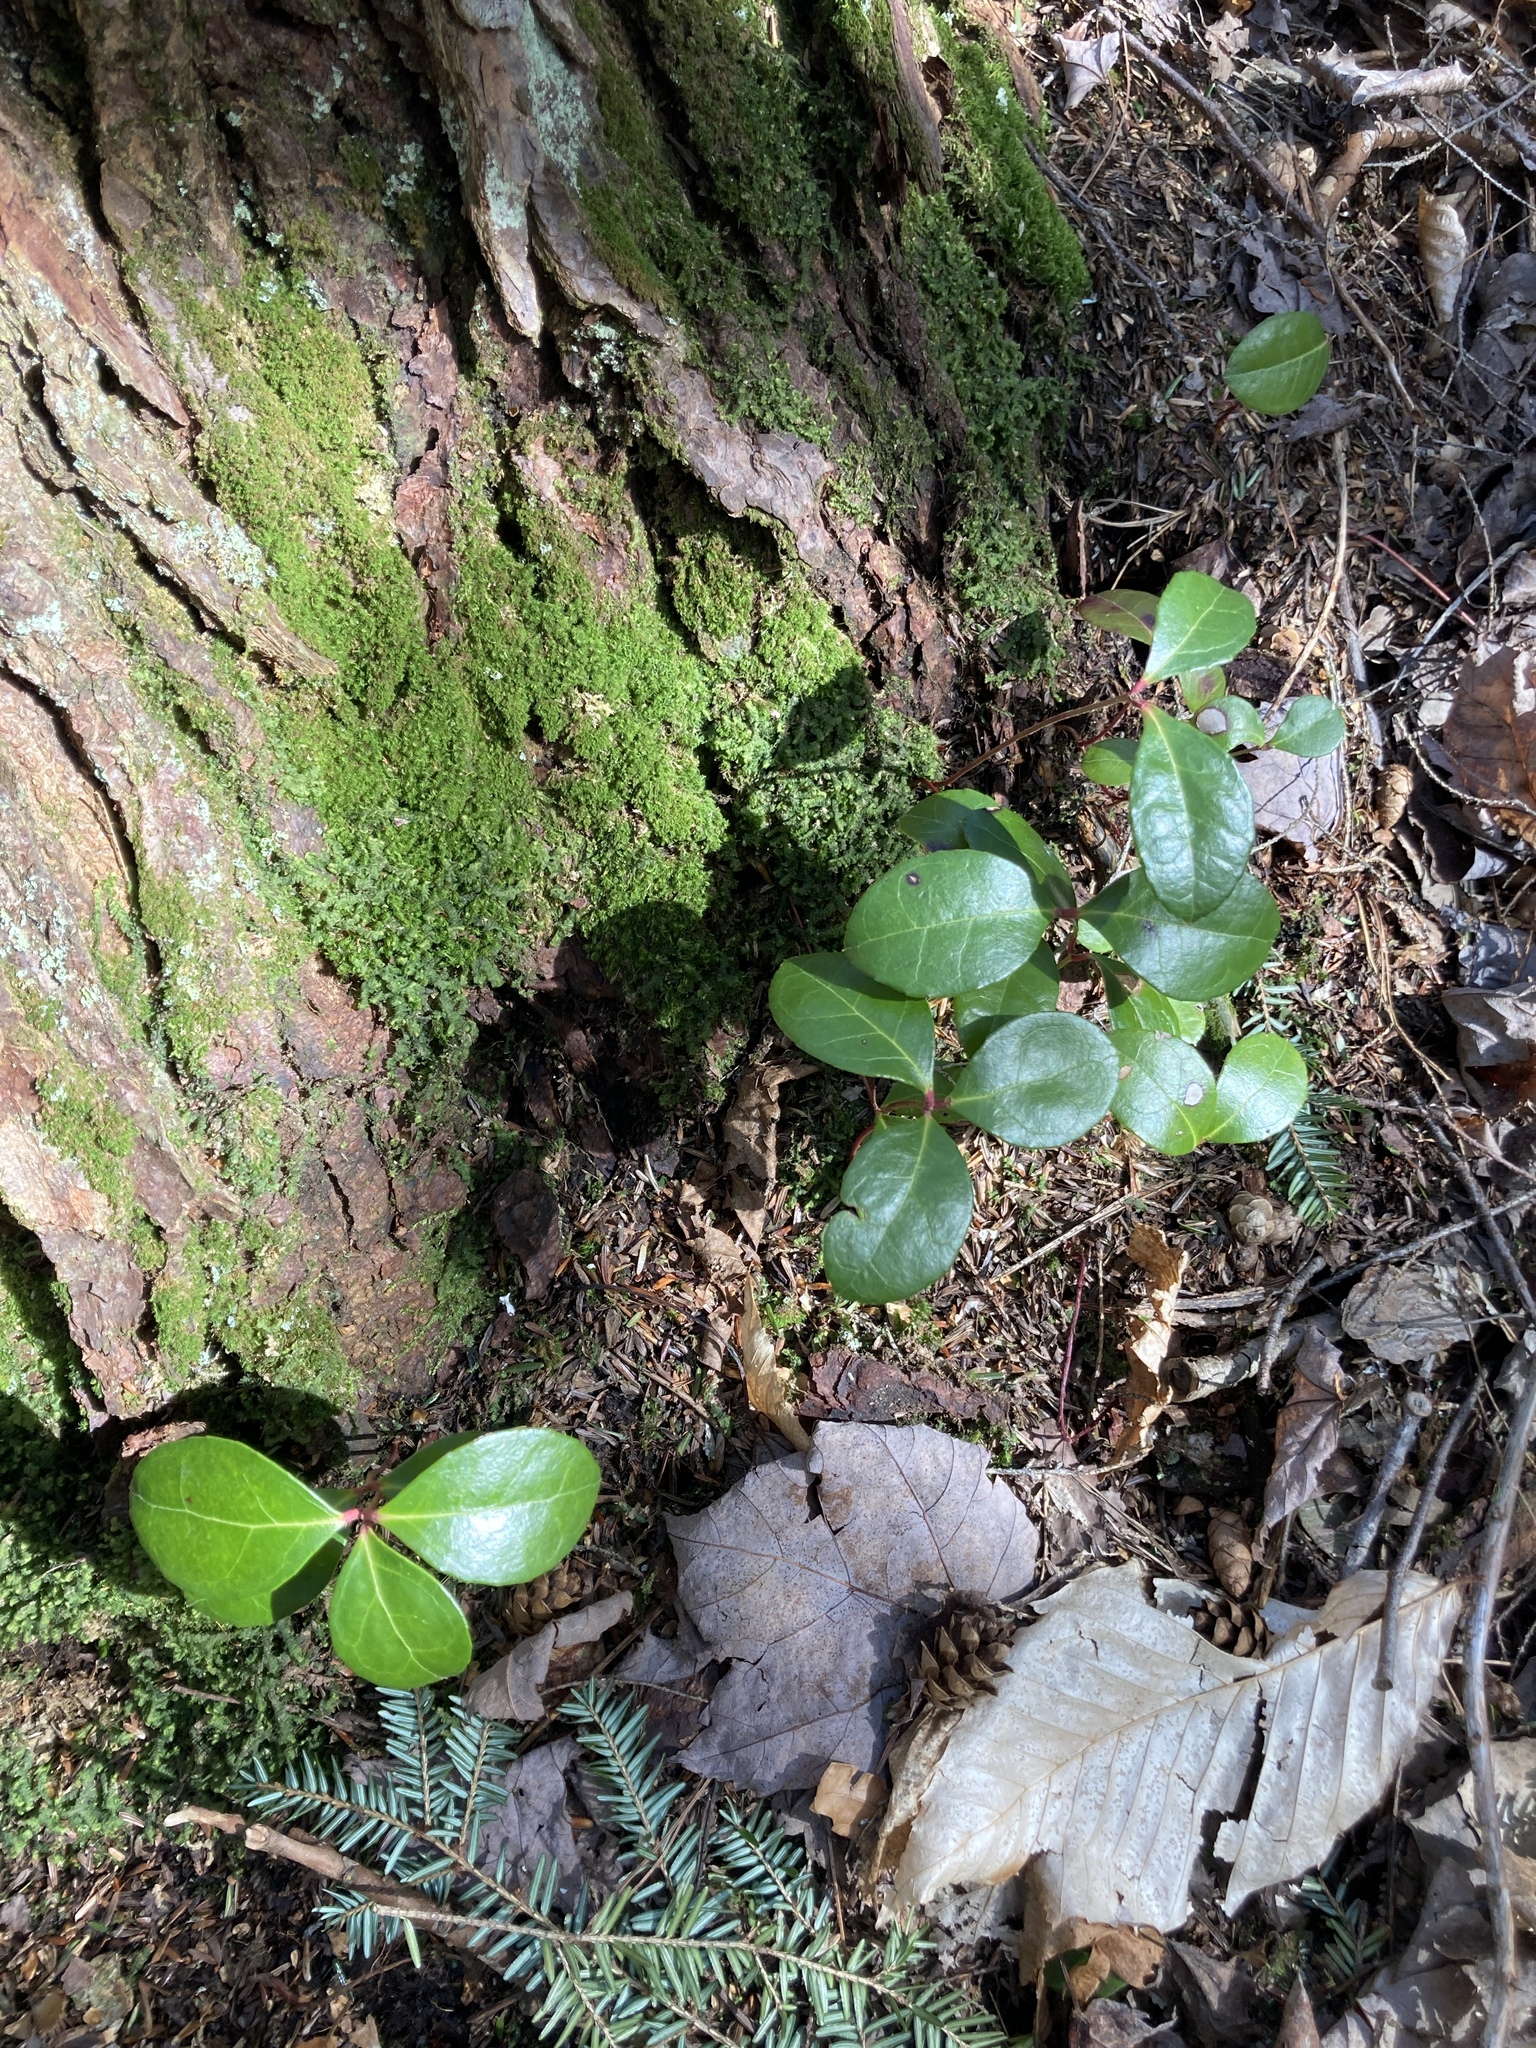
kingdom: Plantae
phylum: Tracheophyta
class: Magnoliopsida
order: Ericales
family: Ericaceae
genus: Gaultheria
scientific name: Gaultheria procumbens
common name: Checkerberry
